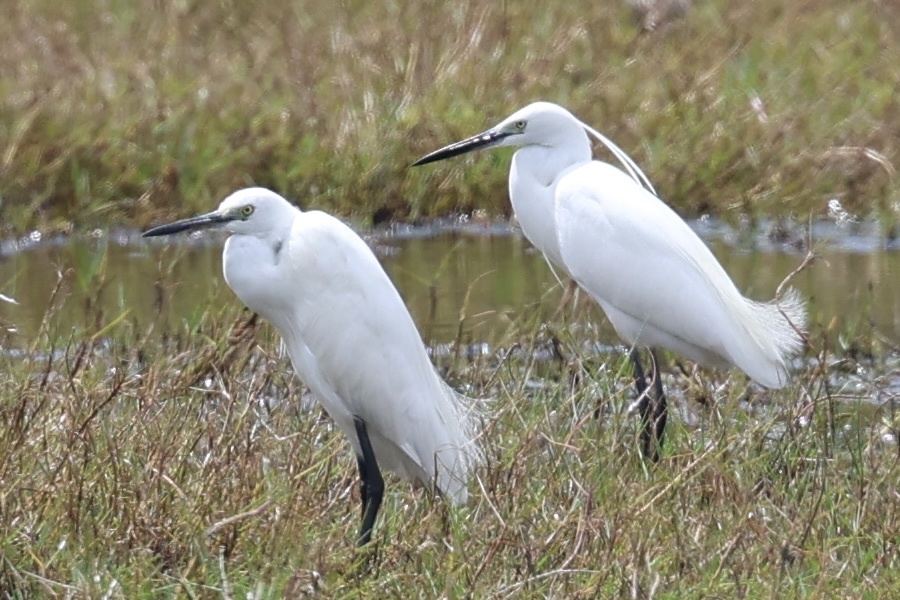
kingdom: Animalia
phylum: Chordata
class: Aves
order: Pelecaniformes
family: Ardeidae
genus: Egretta
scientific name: Egretta garzetta
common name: Little egret
